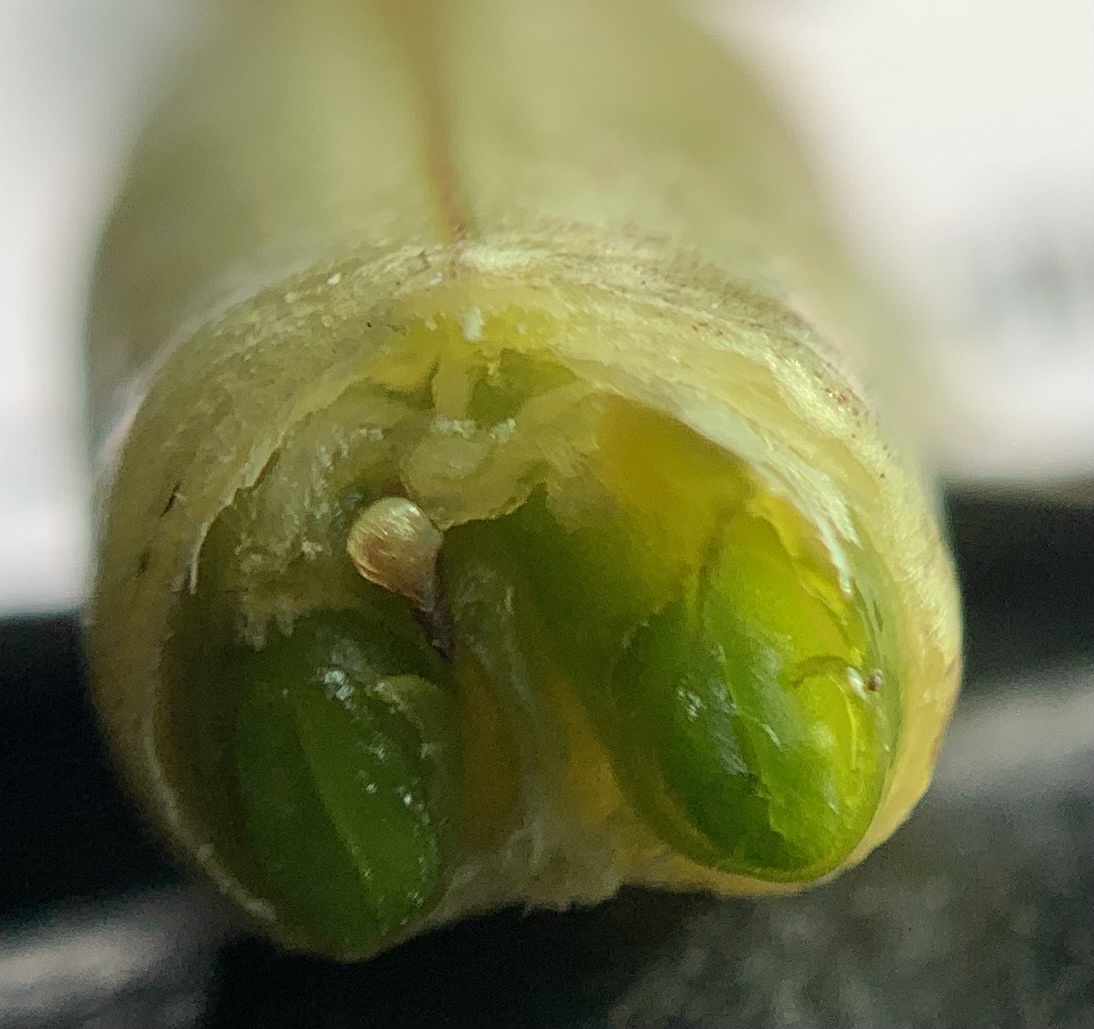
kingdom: Plantae
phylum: Tracheophyta
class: Magnoliopsida
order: Fabales
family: Fabaceae
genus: Astragalus
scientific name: Astragalus atropubescens
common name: Kelsey milk-vetch
